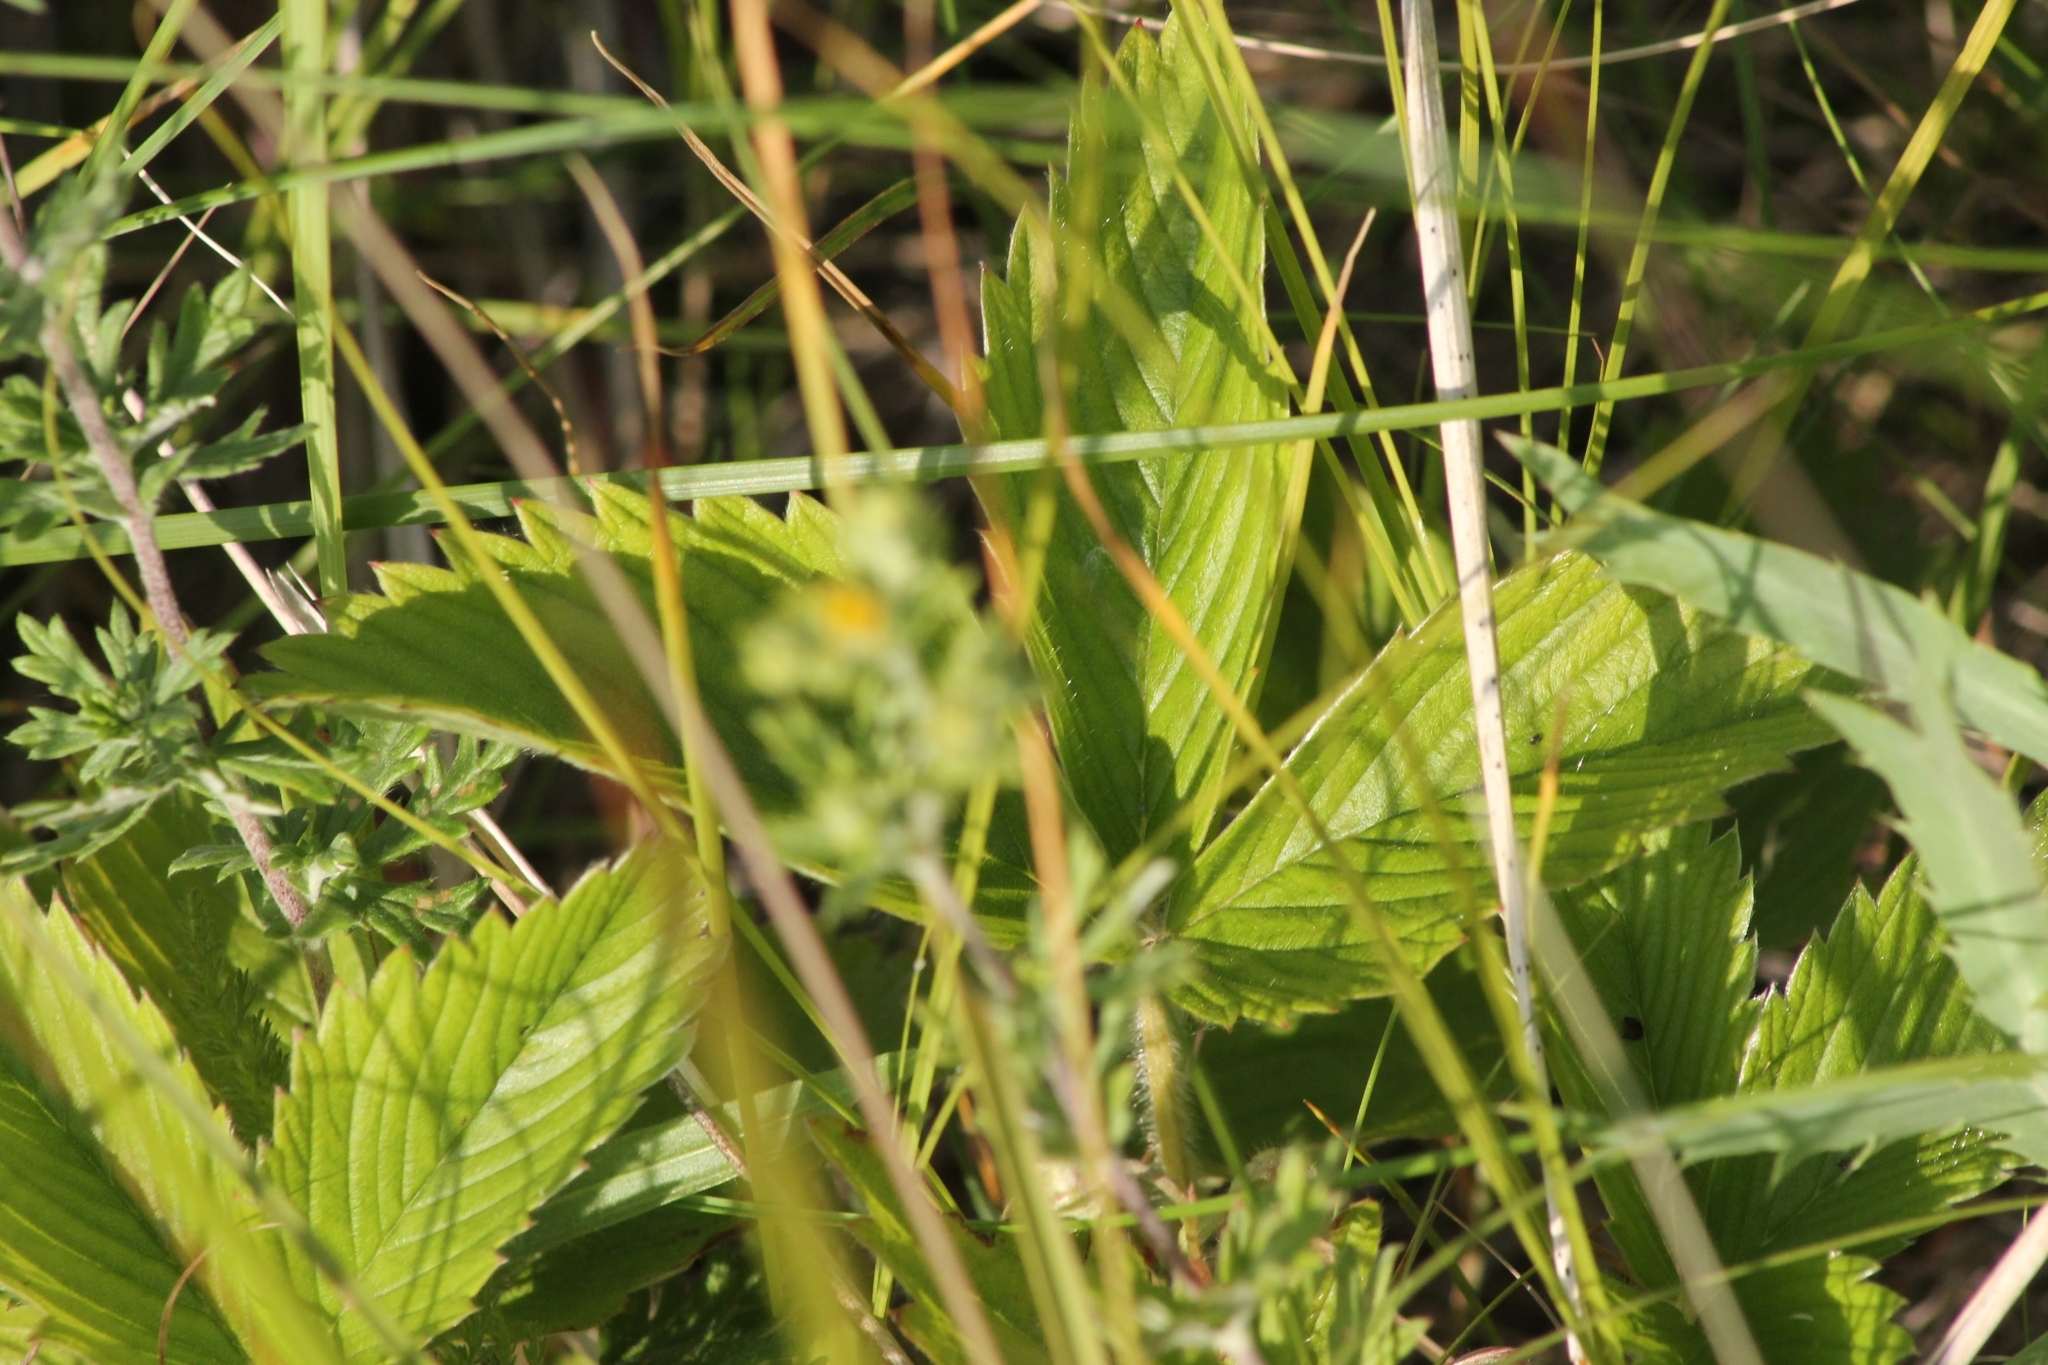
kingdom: Plantae
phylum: Tracheophyta
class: Magnoliopsida
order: Rosales
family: Rosaceae
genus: Fragaria
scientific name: Fragaria viridis
